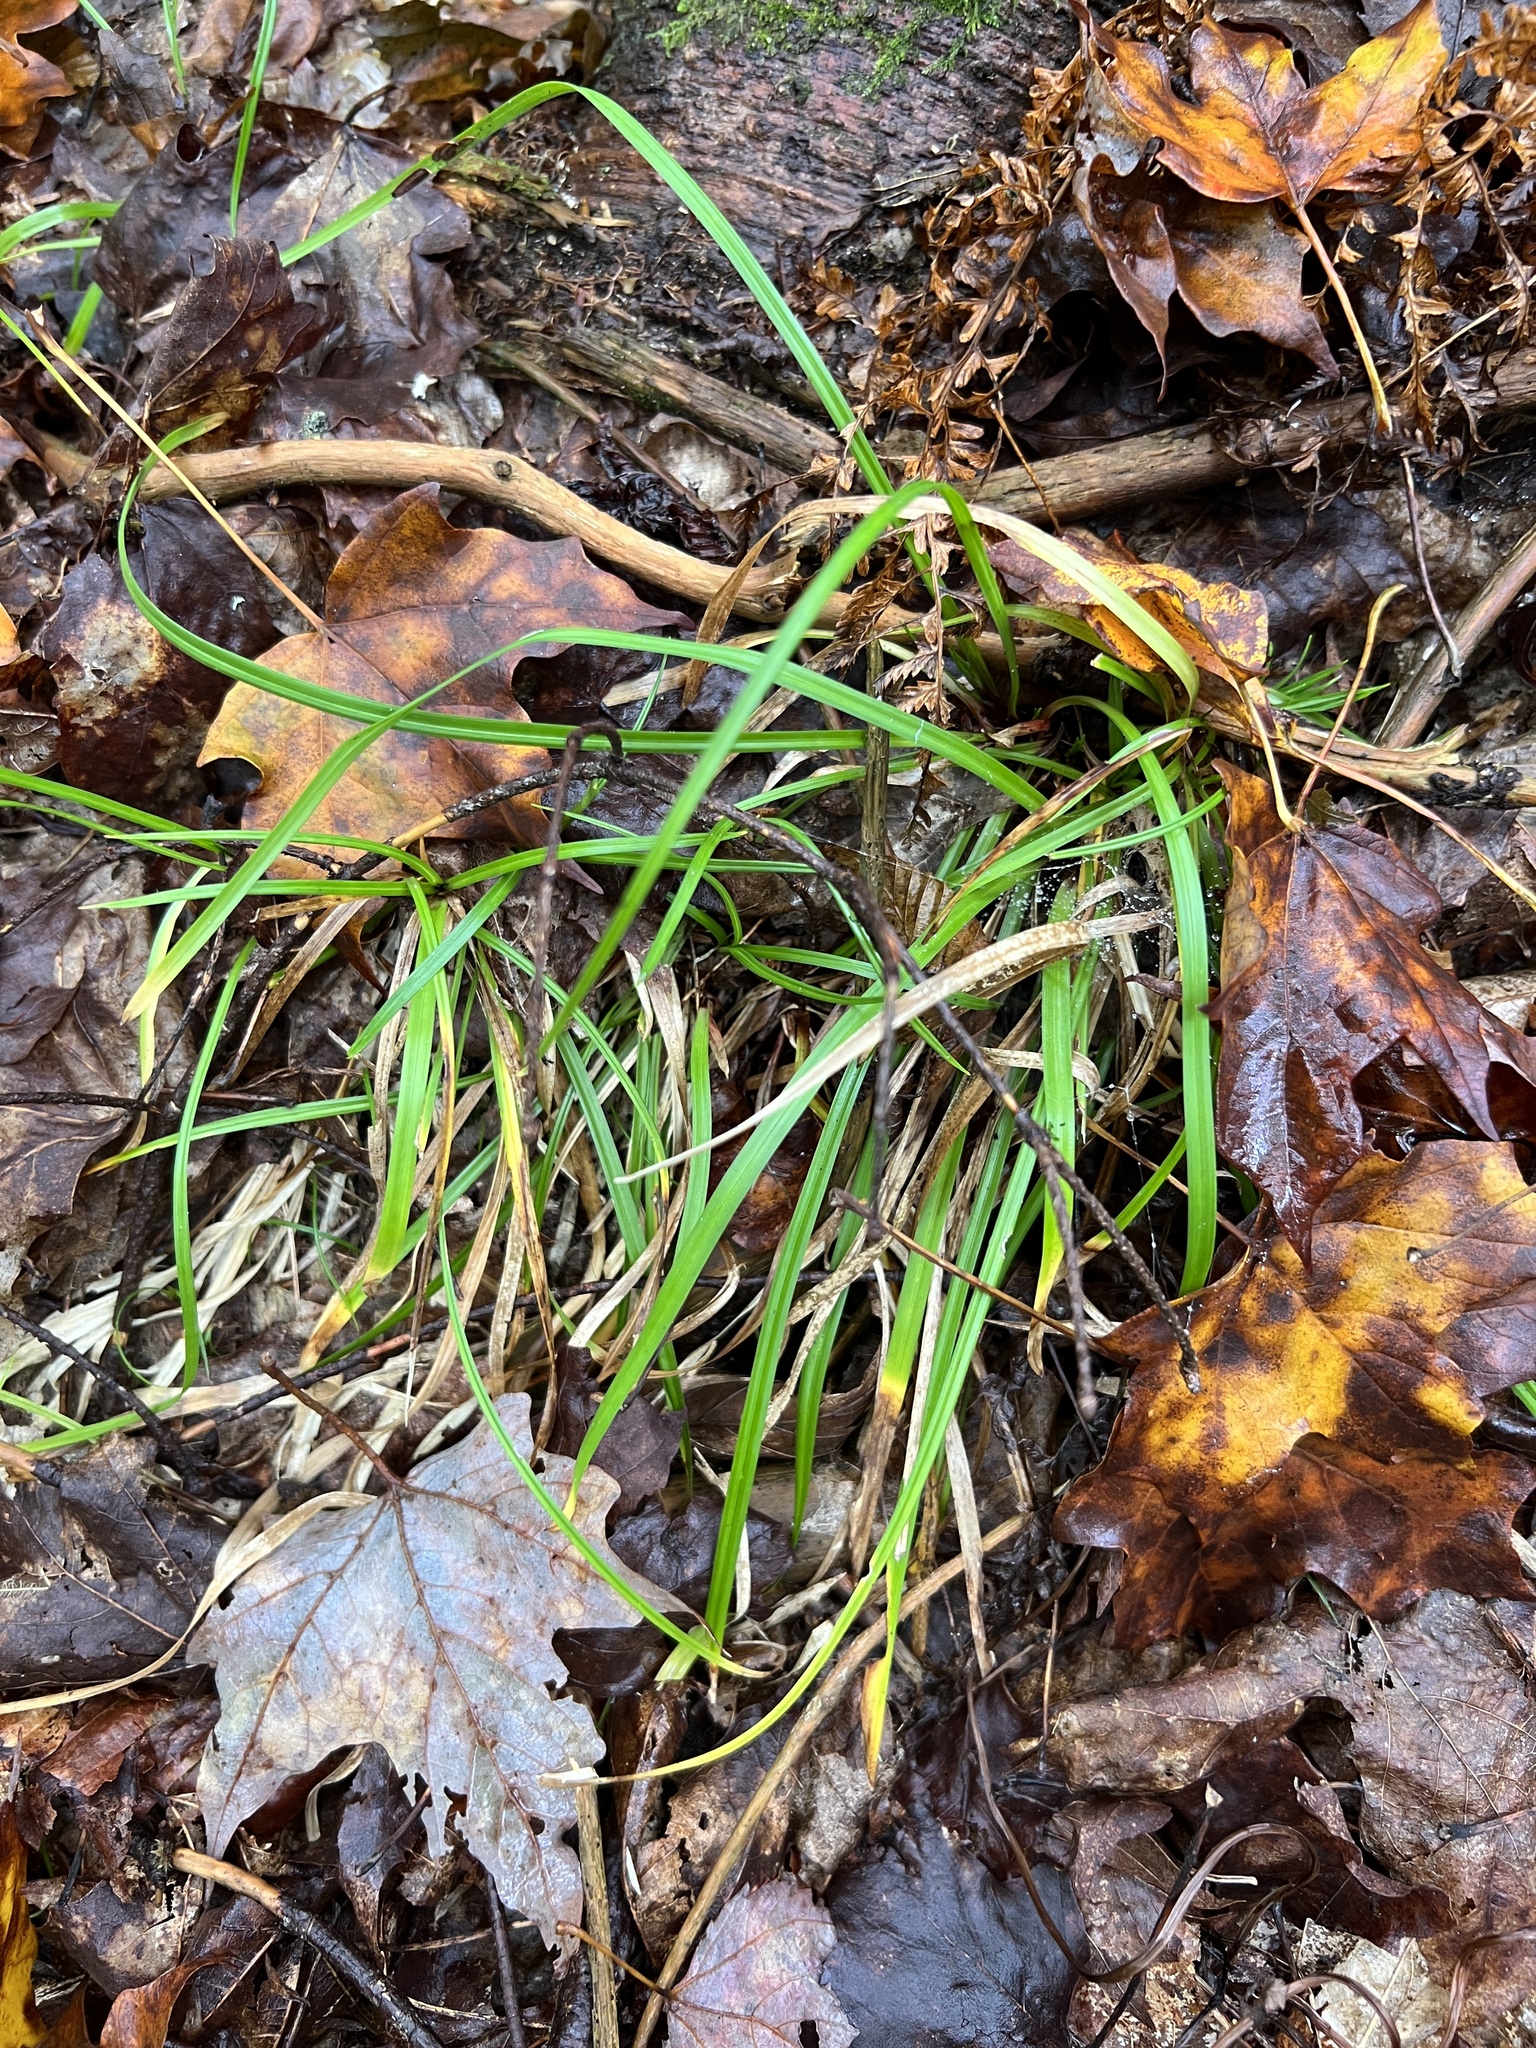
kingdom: Plantae
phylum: Tracheophyta
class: Liliopsida
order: Poales
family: Cyperaceae
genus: Carex
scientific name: Carex pedunculata
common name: Pedunculate sedge
